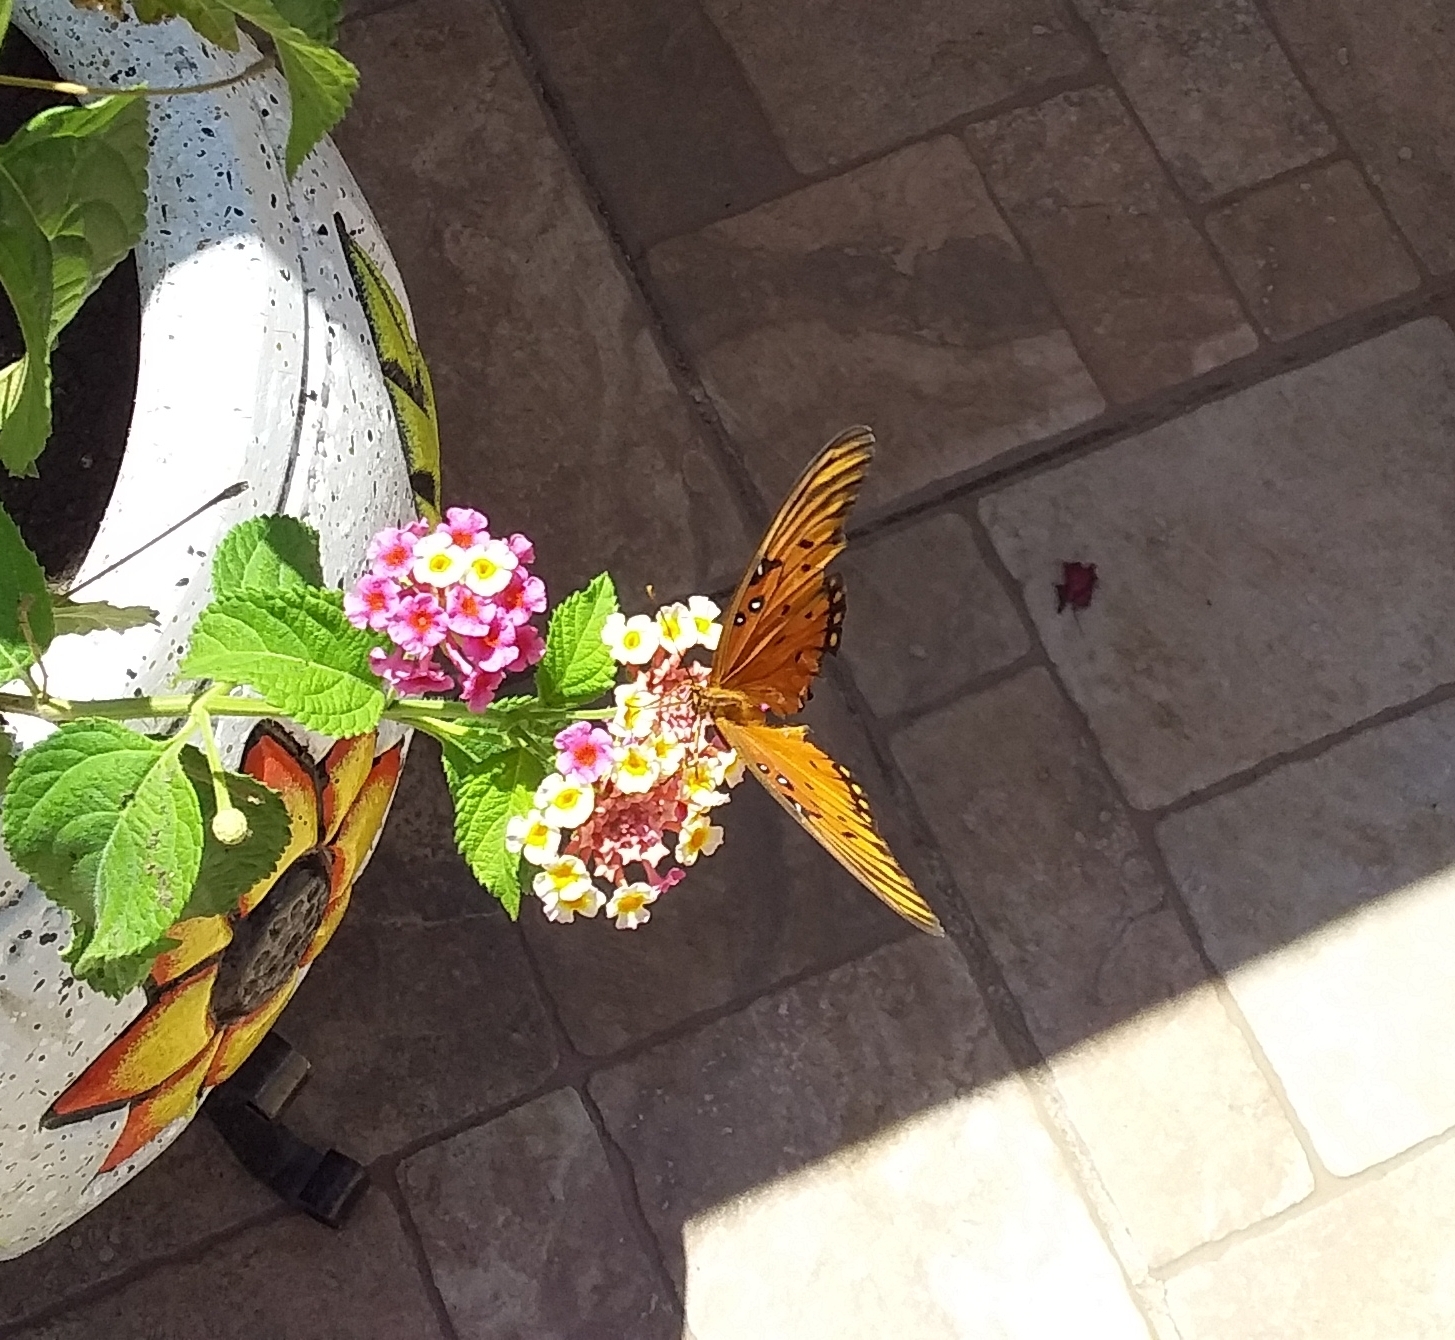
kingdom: Animalia
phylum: Arthropoda
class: Insecta
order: Lepidoptera
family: Nymphalidae
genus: Dione
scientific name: Dione vanillae
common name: Gulf fritillary
